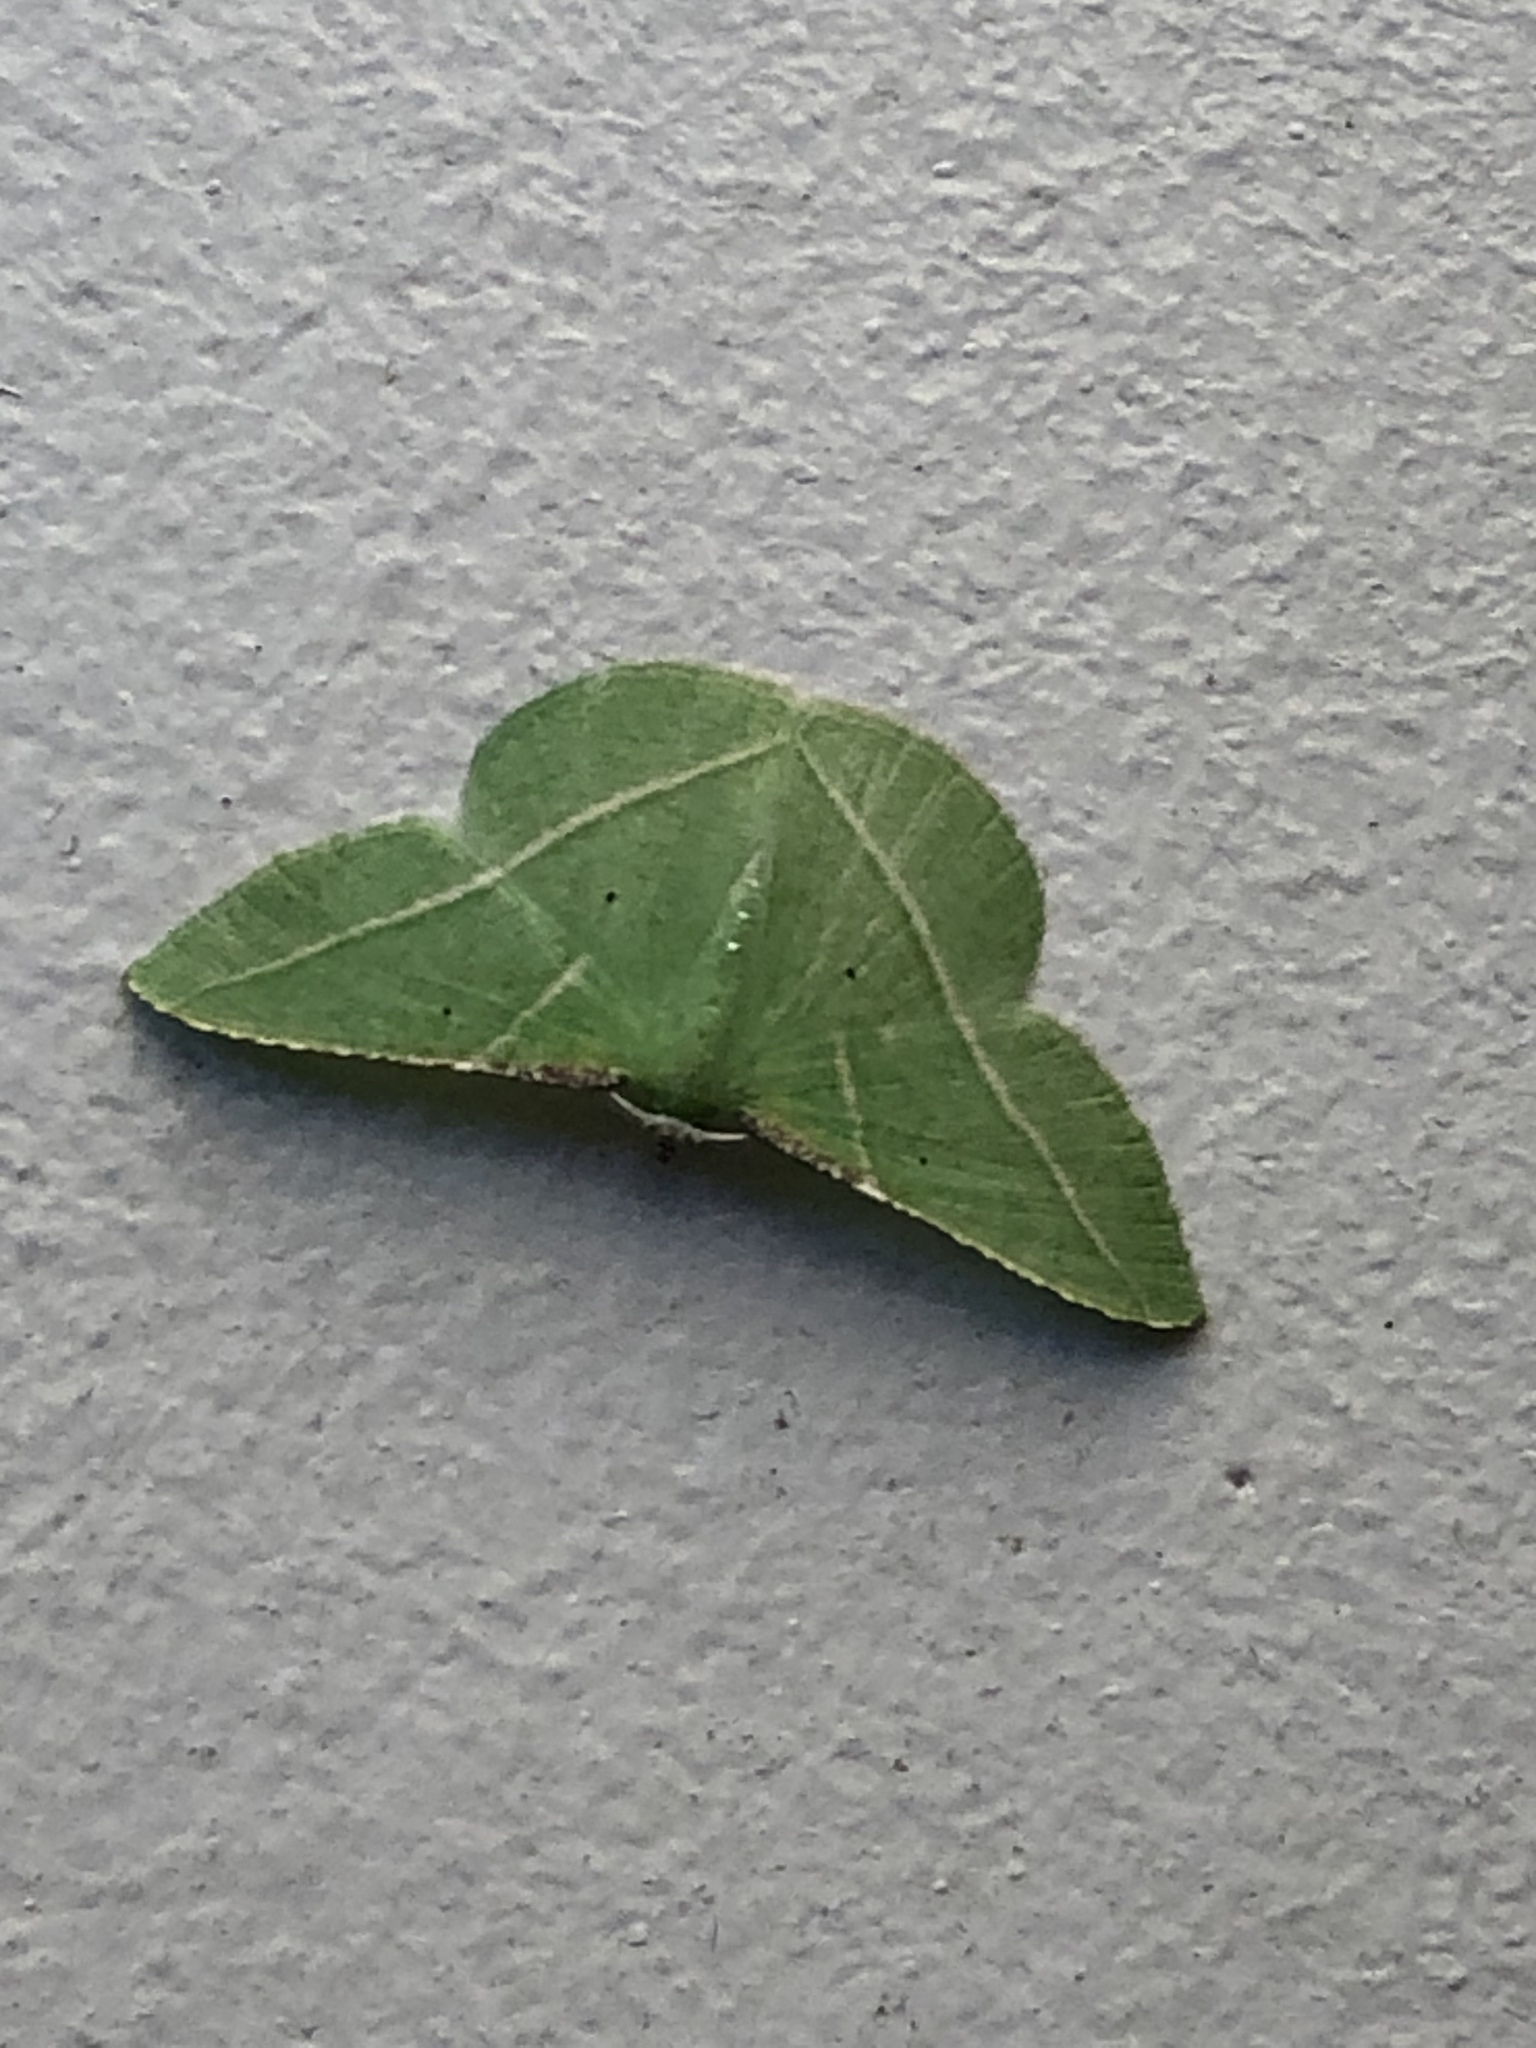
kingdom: Animalia
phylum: Arthropoda
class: Insecta
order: Lepidoptera
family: Geometridae
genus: Dichorda
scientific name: Dichorda illustraria
